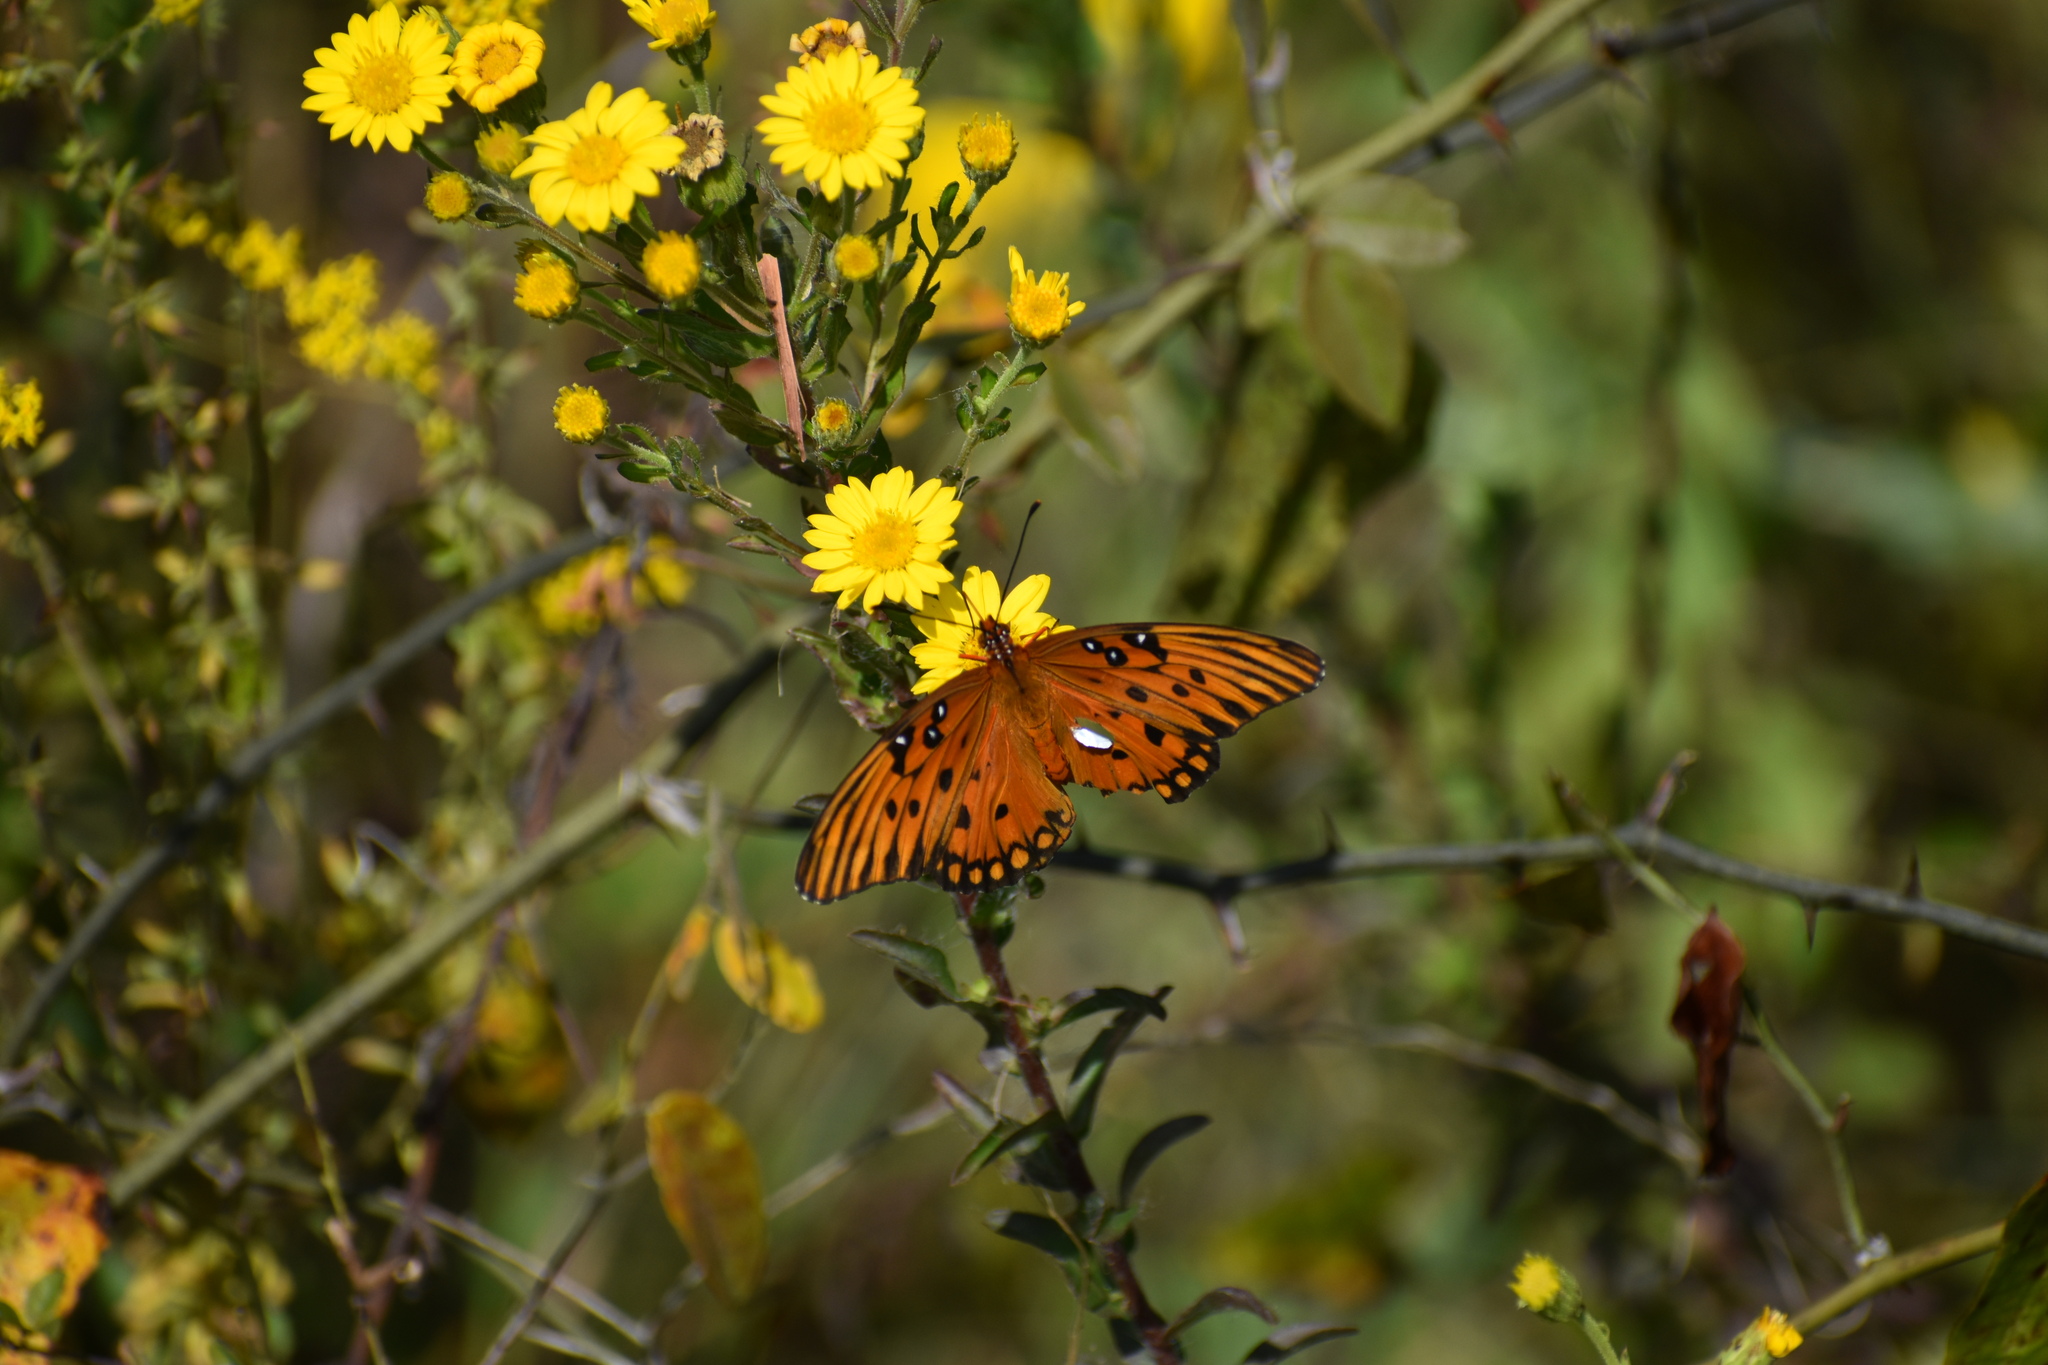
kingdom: Plantae
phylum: Tracheophyta
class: Magnoliopsida
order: Asterales
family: Asteraceae
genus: Chrysopsis
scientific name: Chrysopsis mariana
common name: Maryland golden-aster
